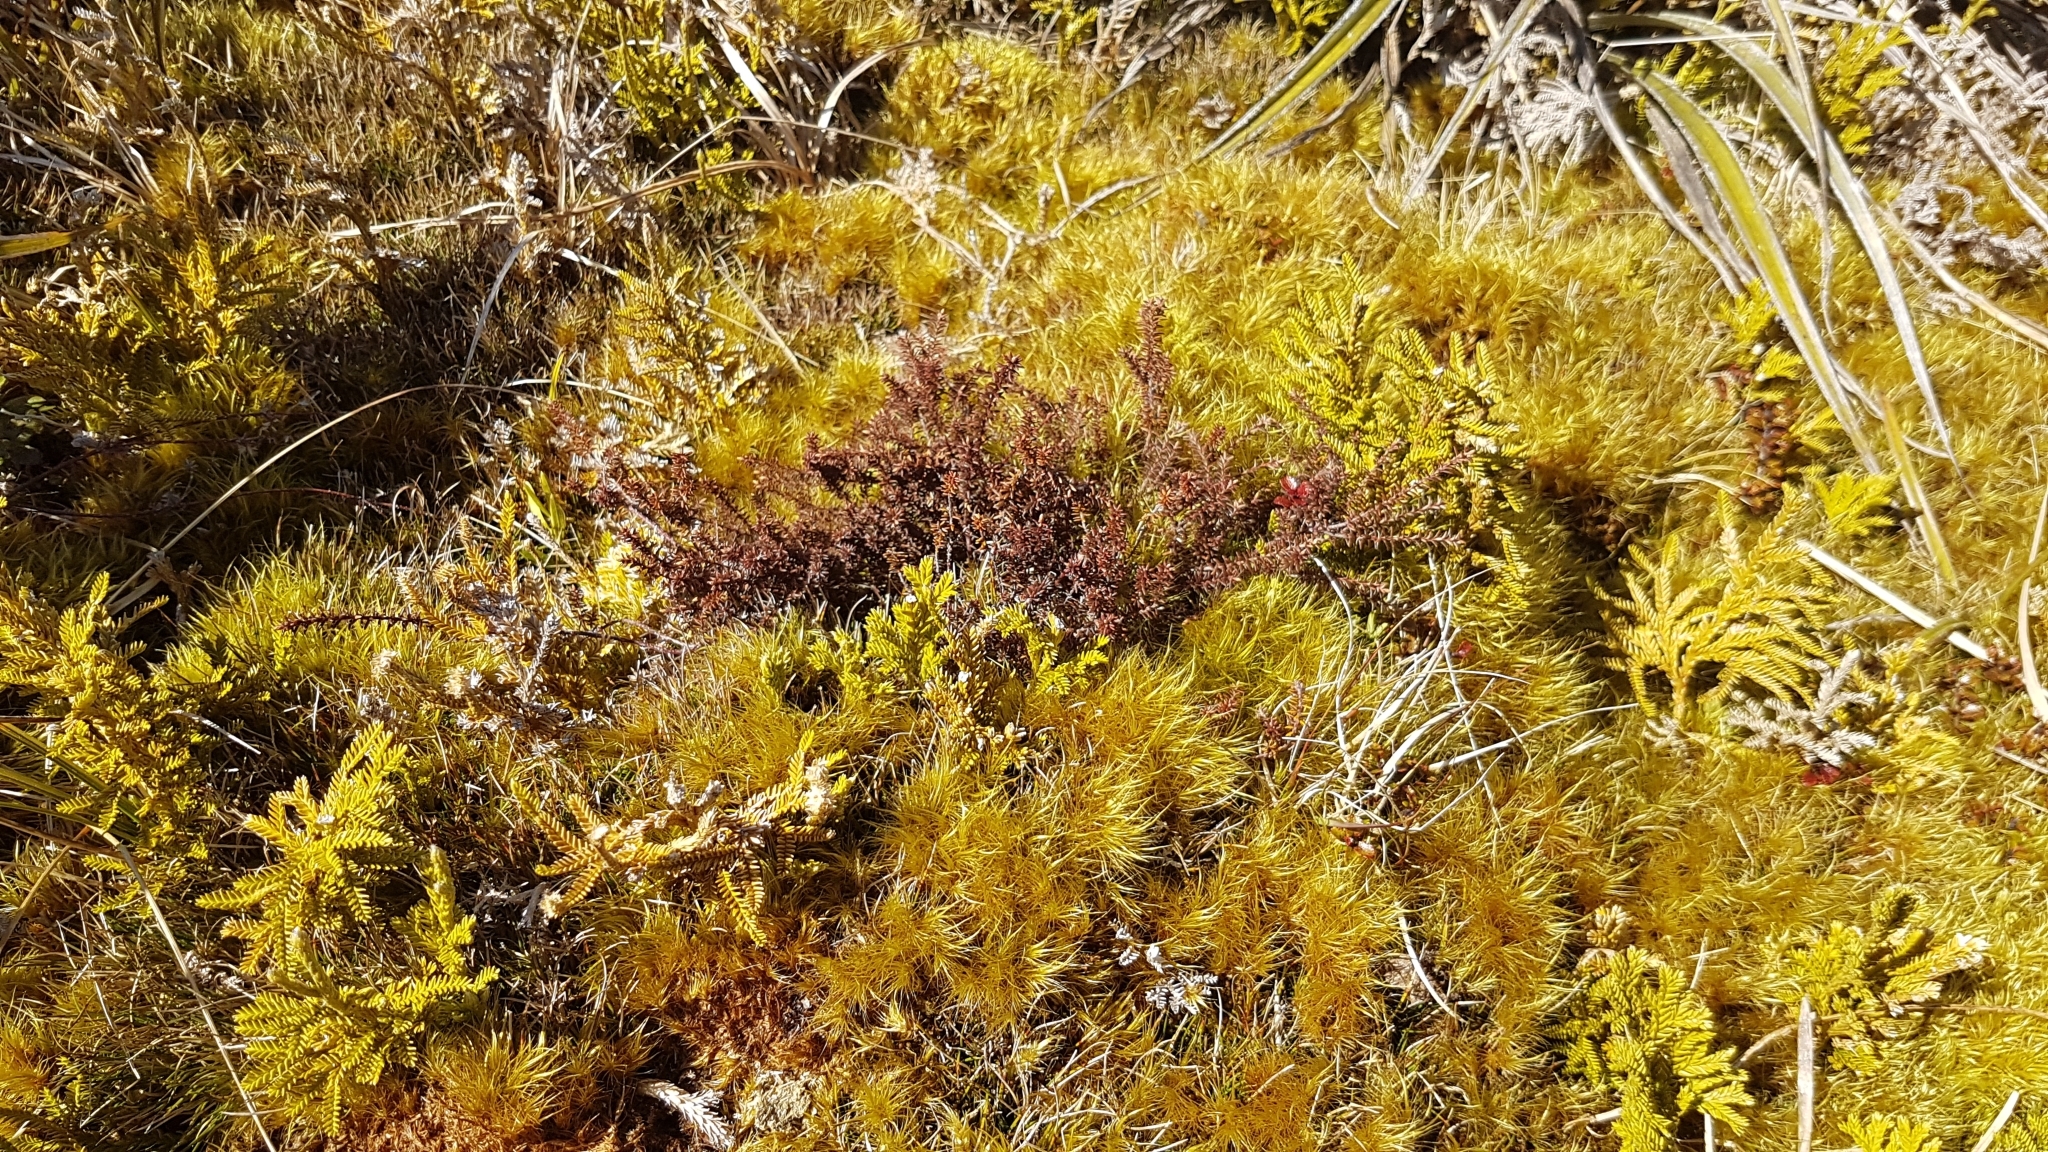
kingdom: Plantae
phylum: Tracheophyta
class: Liliopsida
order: Asparagales
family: Asteliaceae
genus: Astelia
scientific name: Astelia nervosa
